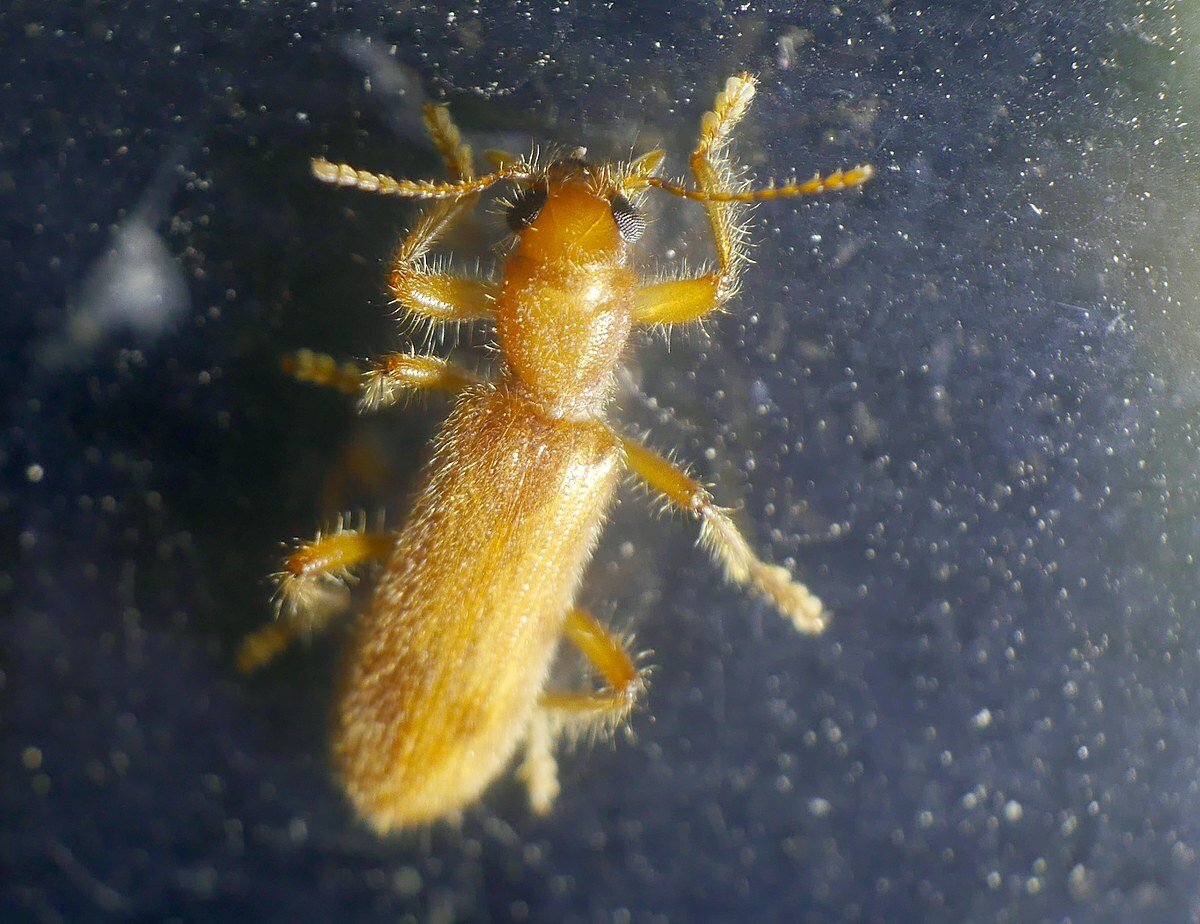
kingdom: Animalia
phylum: Arthropoda
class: Insecta
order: Coleoptera
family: Cleridae
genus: Opilo
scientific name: Opilo pallidus
